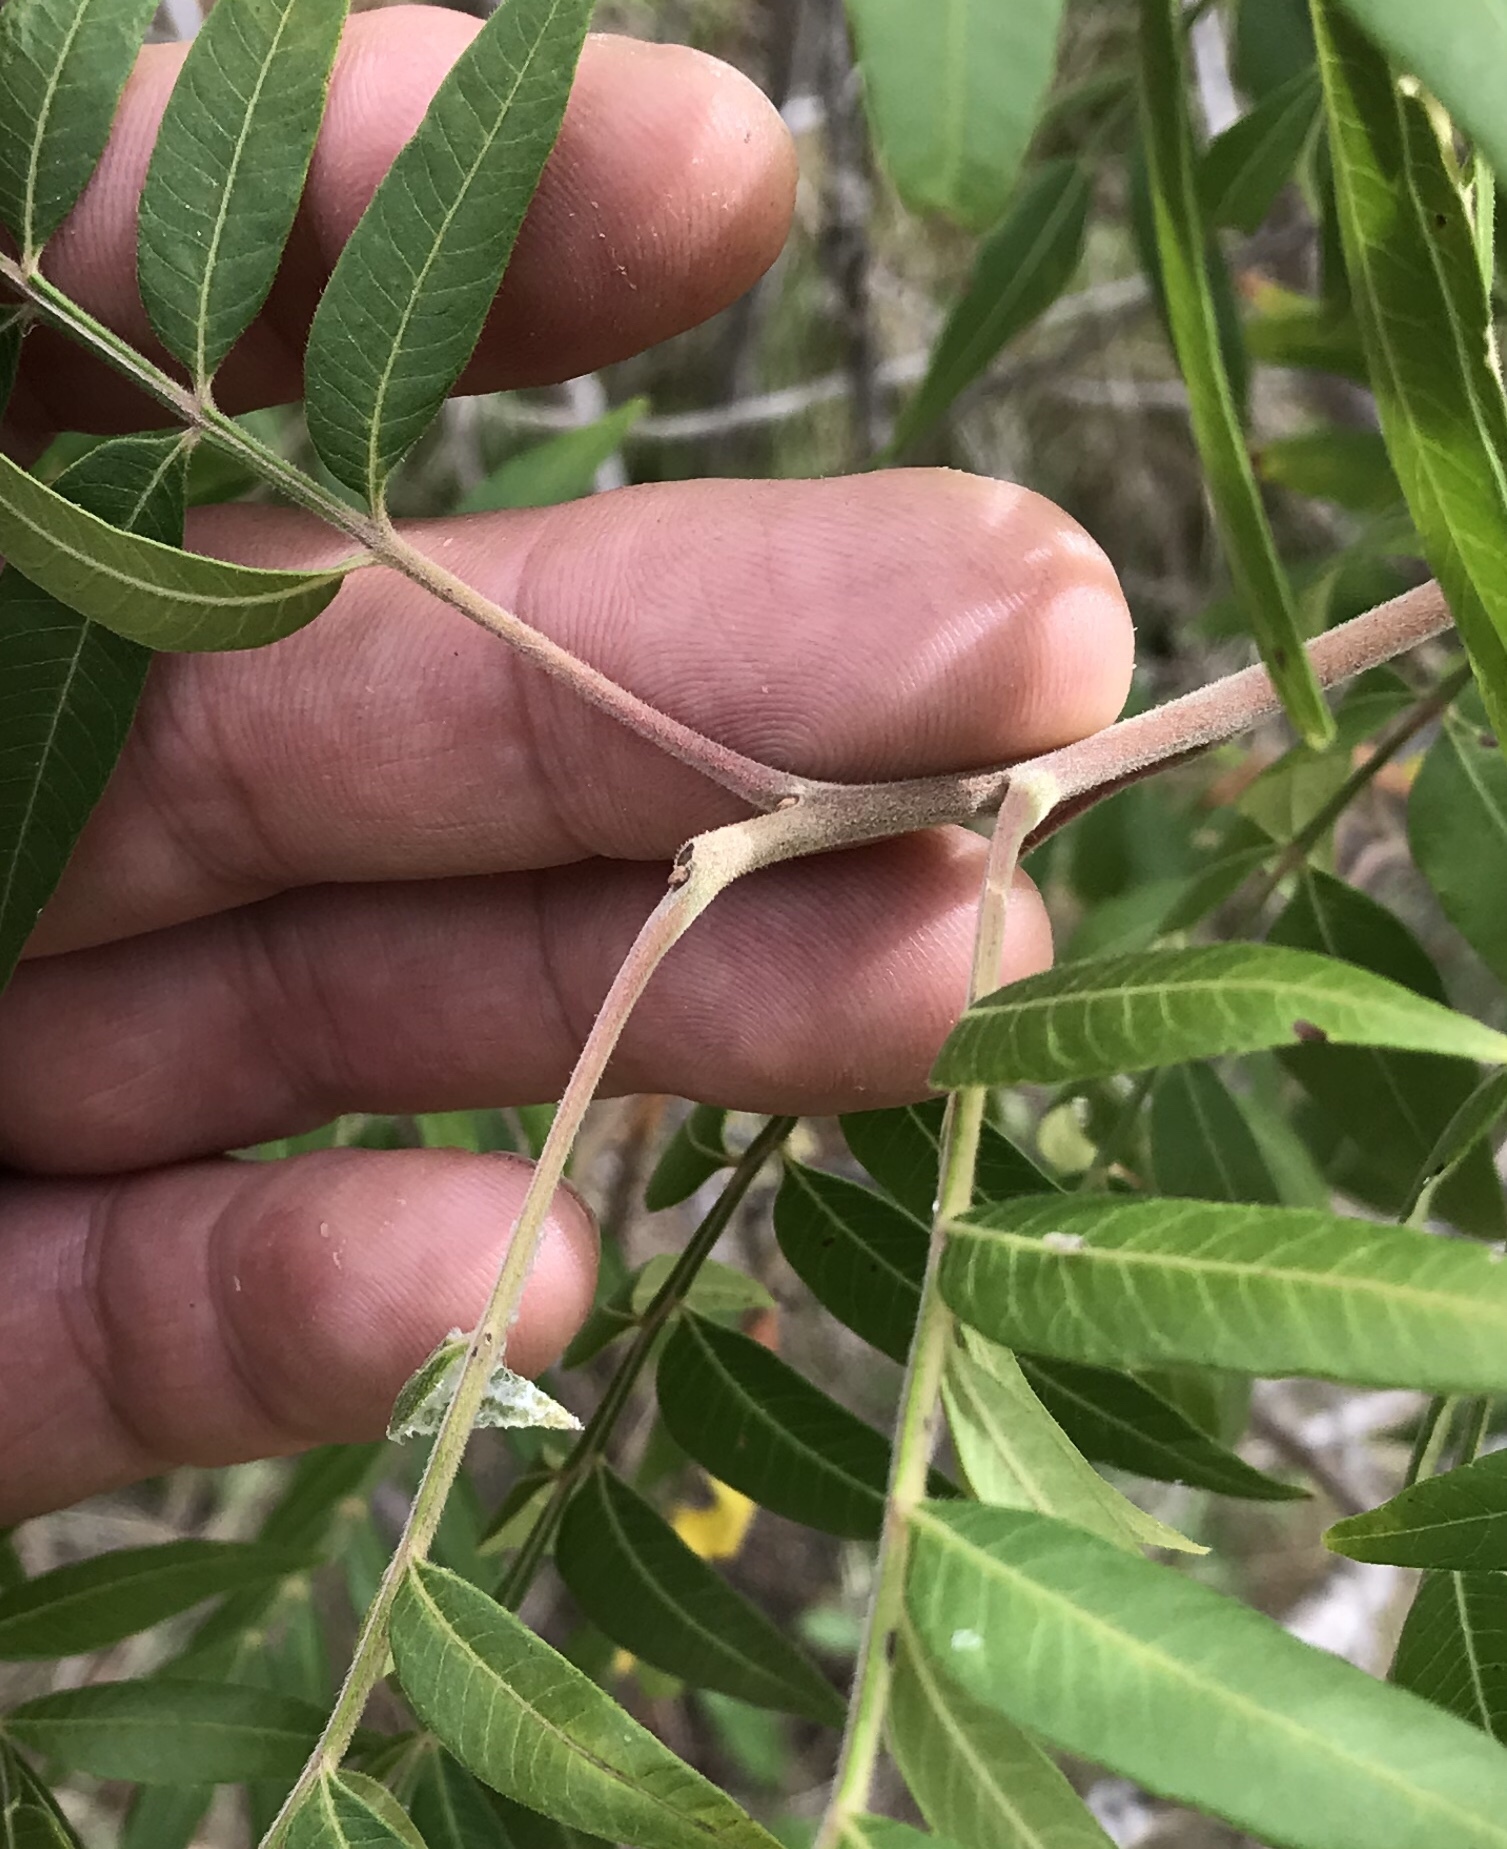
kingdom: Plantae
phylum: Tracheophyta
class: Magnoliopsida
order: Sapindales
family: Anacardiaceae
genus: Rhus
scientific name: Rhus lanceolata
